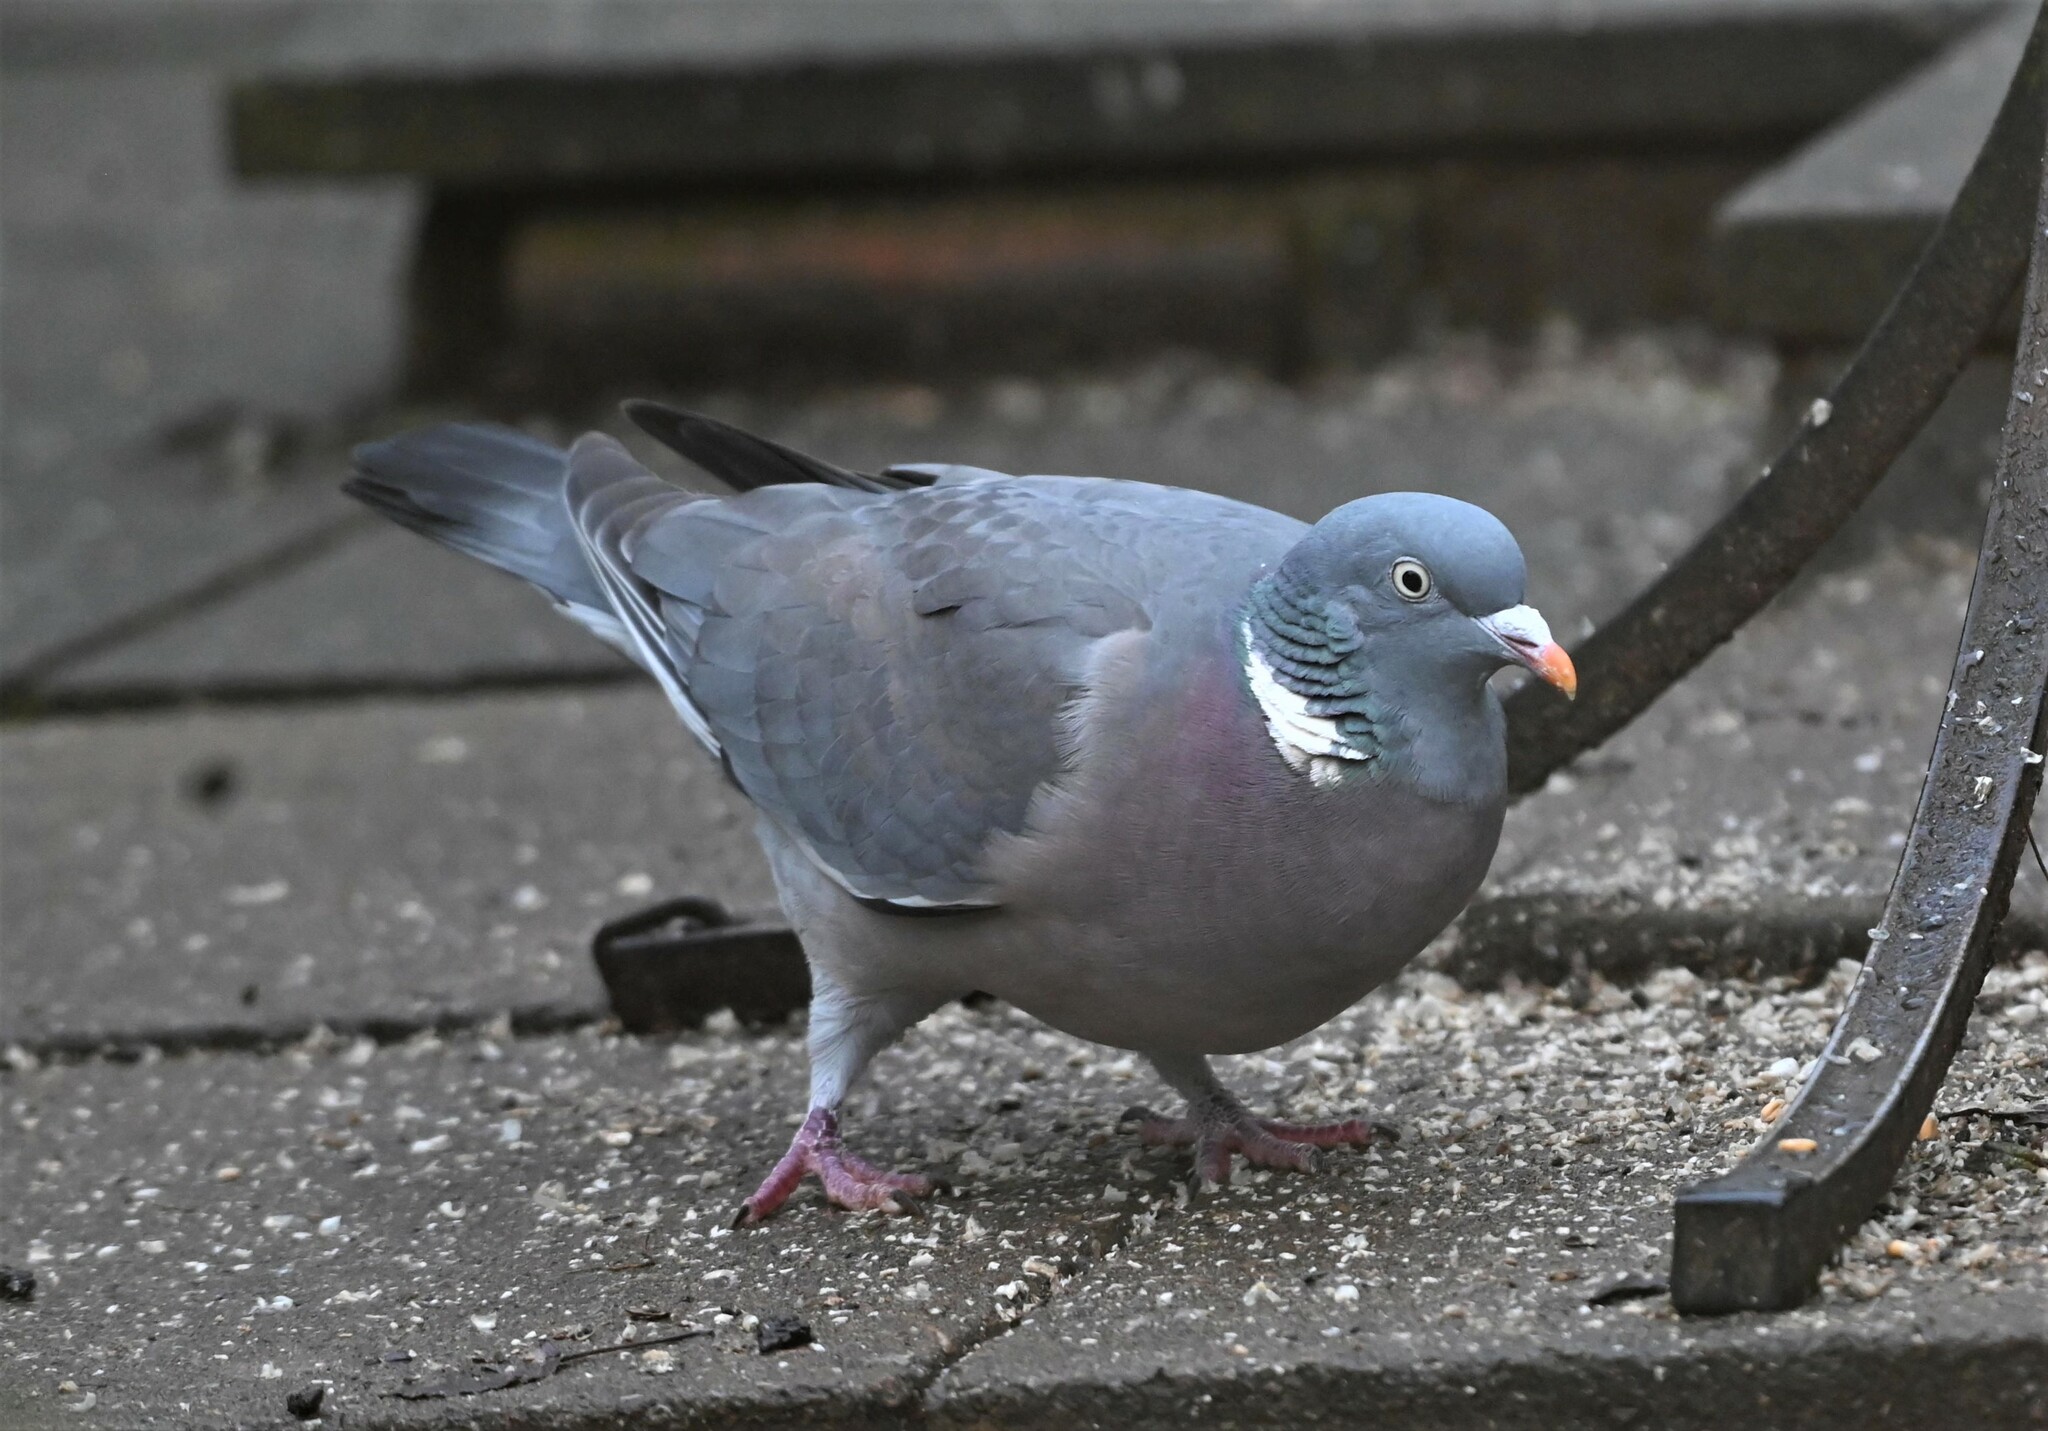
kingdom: Animalia
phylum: Chordata
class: Aves
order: Columbiformes
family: Columbidae
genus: Columba
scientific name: Columba palumbus
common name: Common wood pigeon
